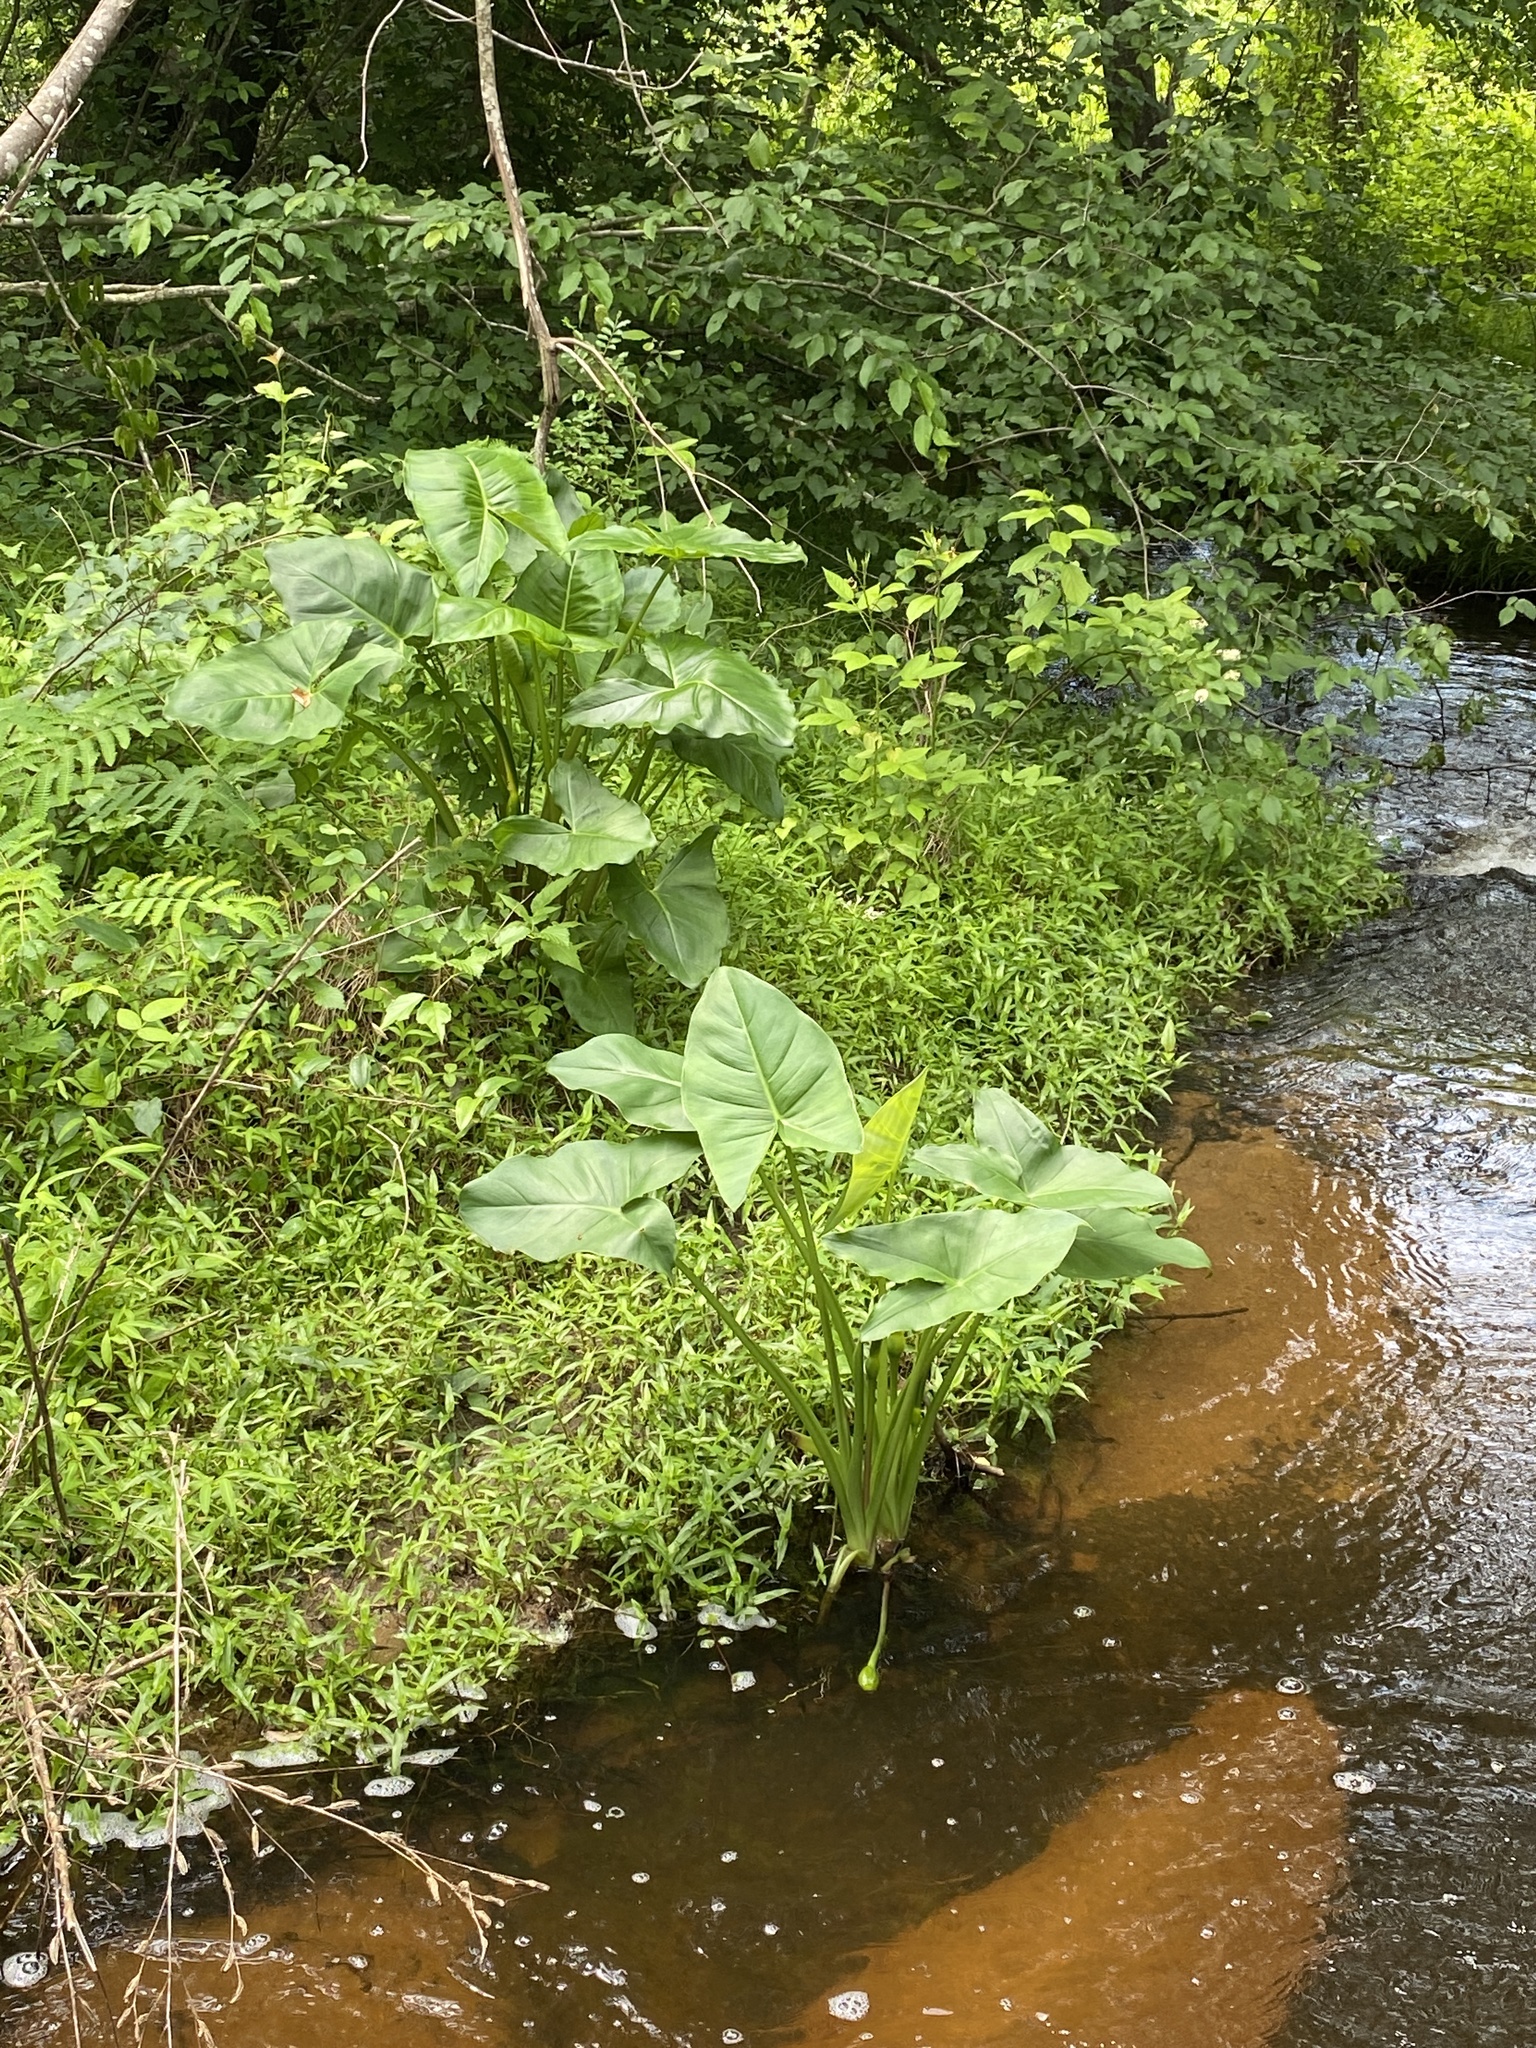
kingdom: Plantae
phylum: Tracheophyta
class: Liliopsida
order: Alismatales
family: Araceae
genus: Peltandra
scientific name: Peltandra virginica
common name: Arrow arum
